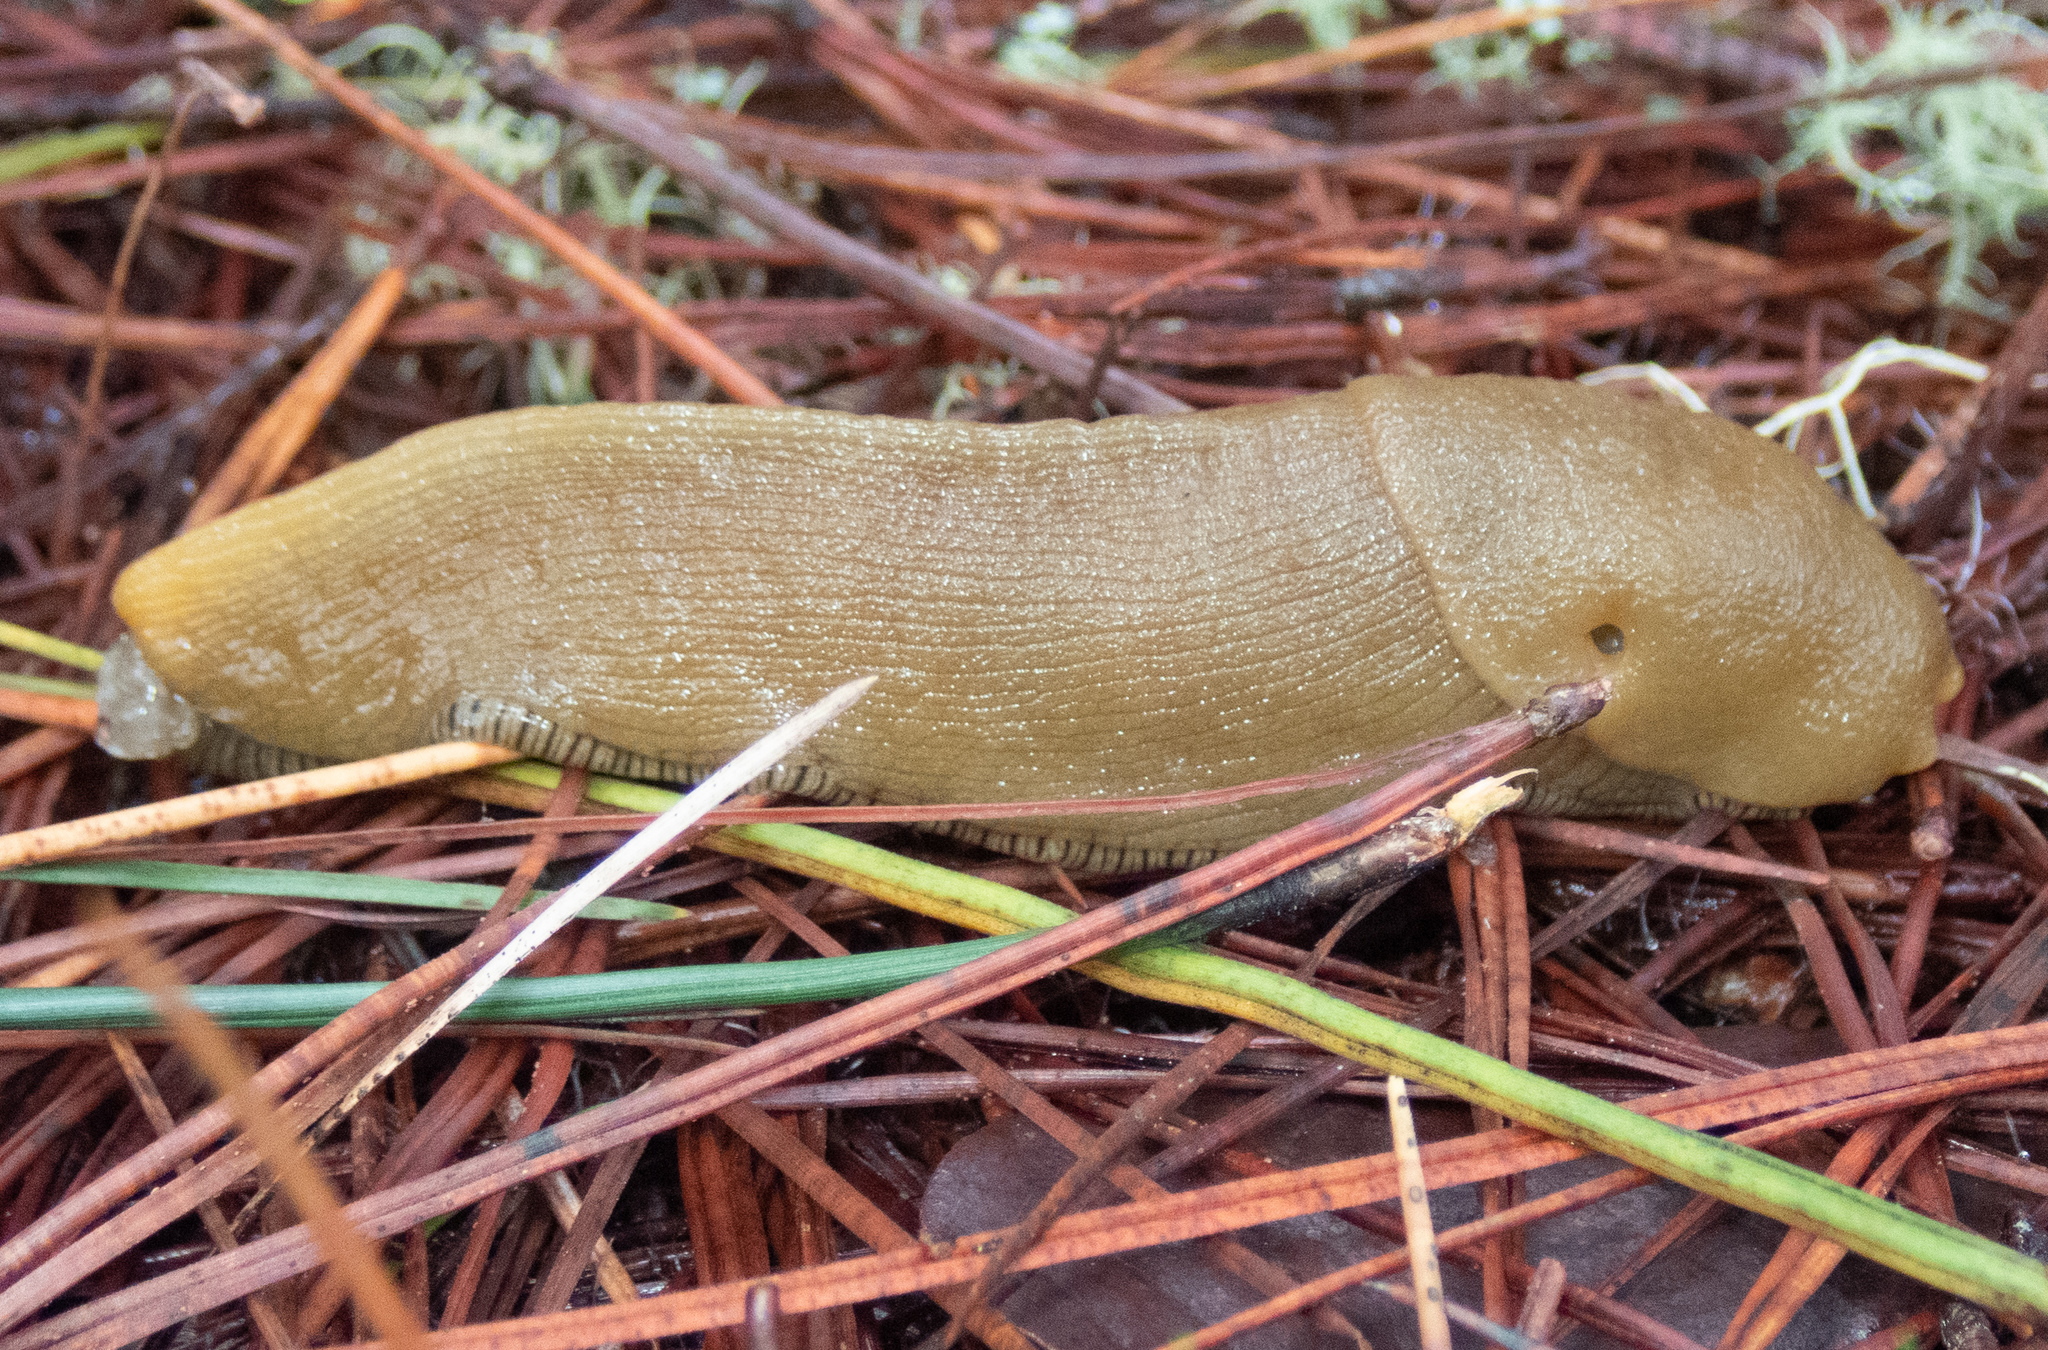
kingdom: Animalia
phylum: Mollusca
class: Gastropoda
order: Stylommatophora
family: Ariolimacidae
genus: Ariolimax
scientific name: Ariolimax buttoni
